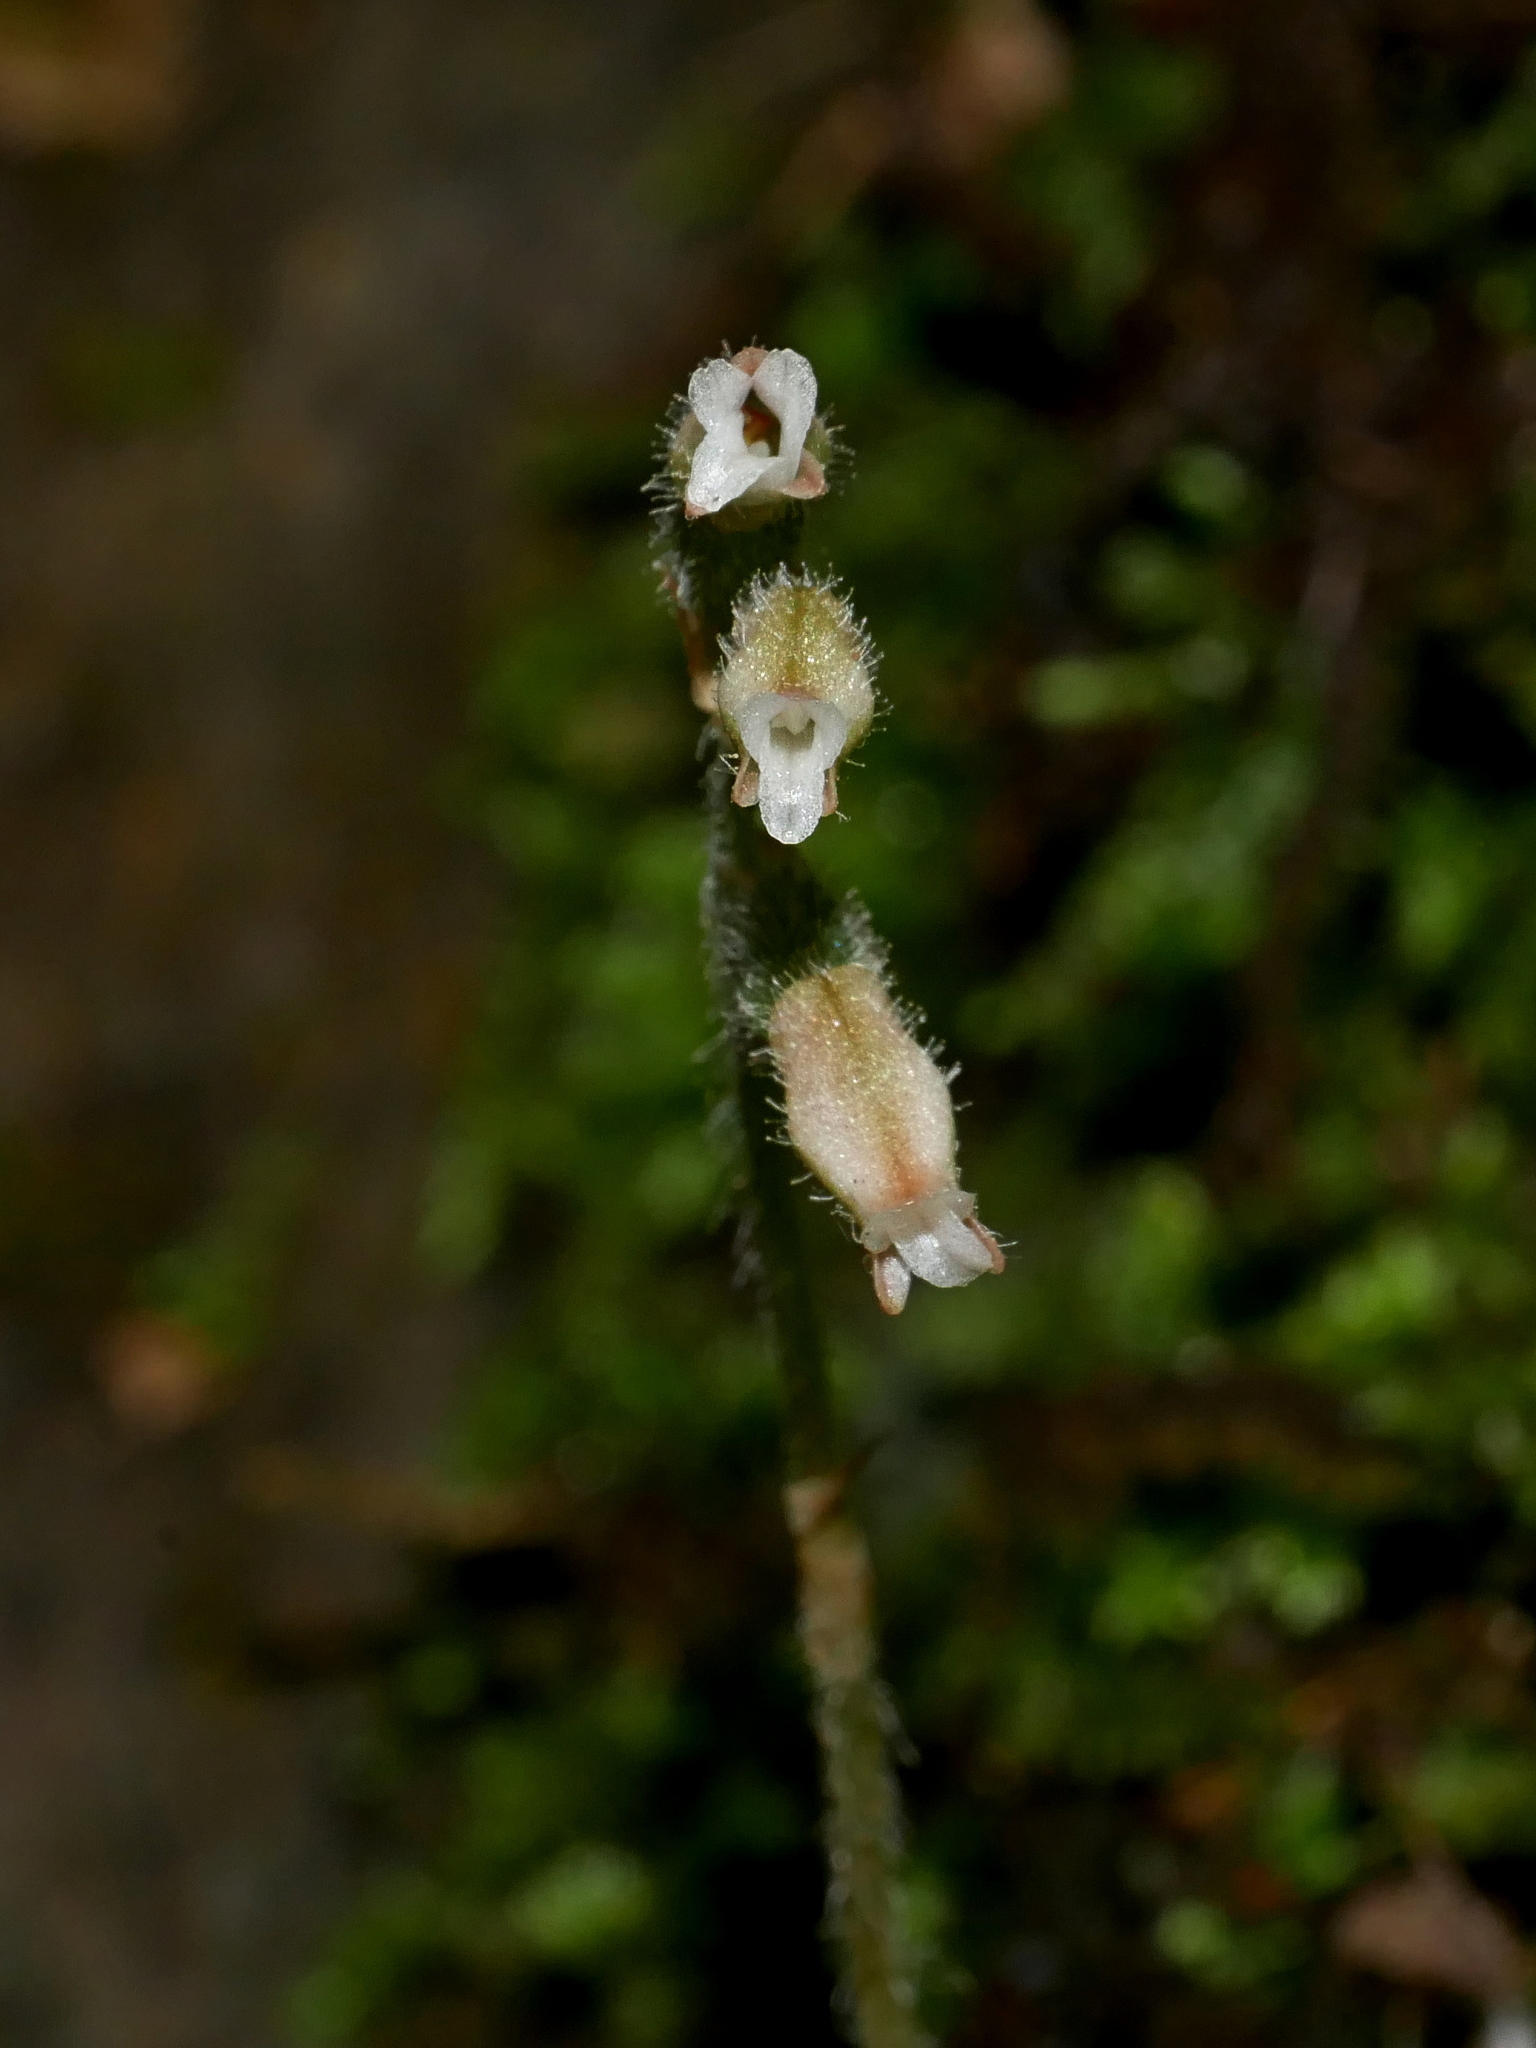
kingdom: Plantae
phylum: Tracheophyta
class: Liliopsida
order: Asparagales
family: Orchidaceae
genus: Cheirostylis
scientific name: Cheirostylis takeoi
